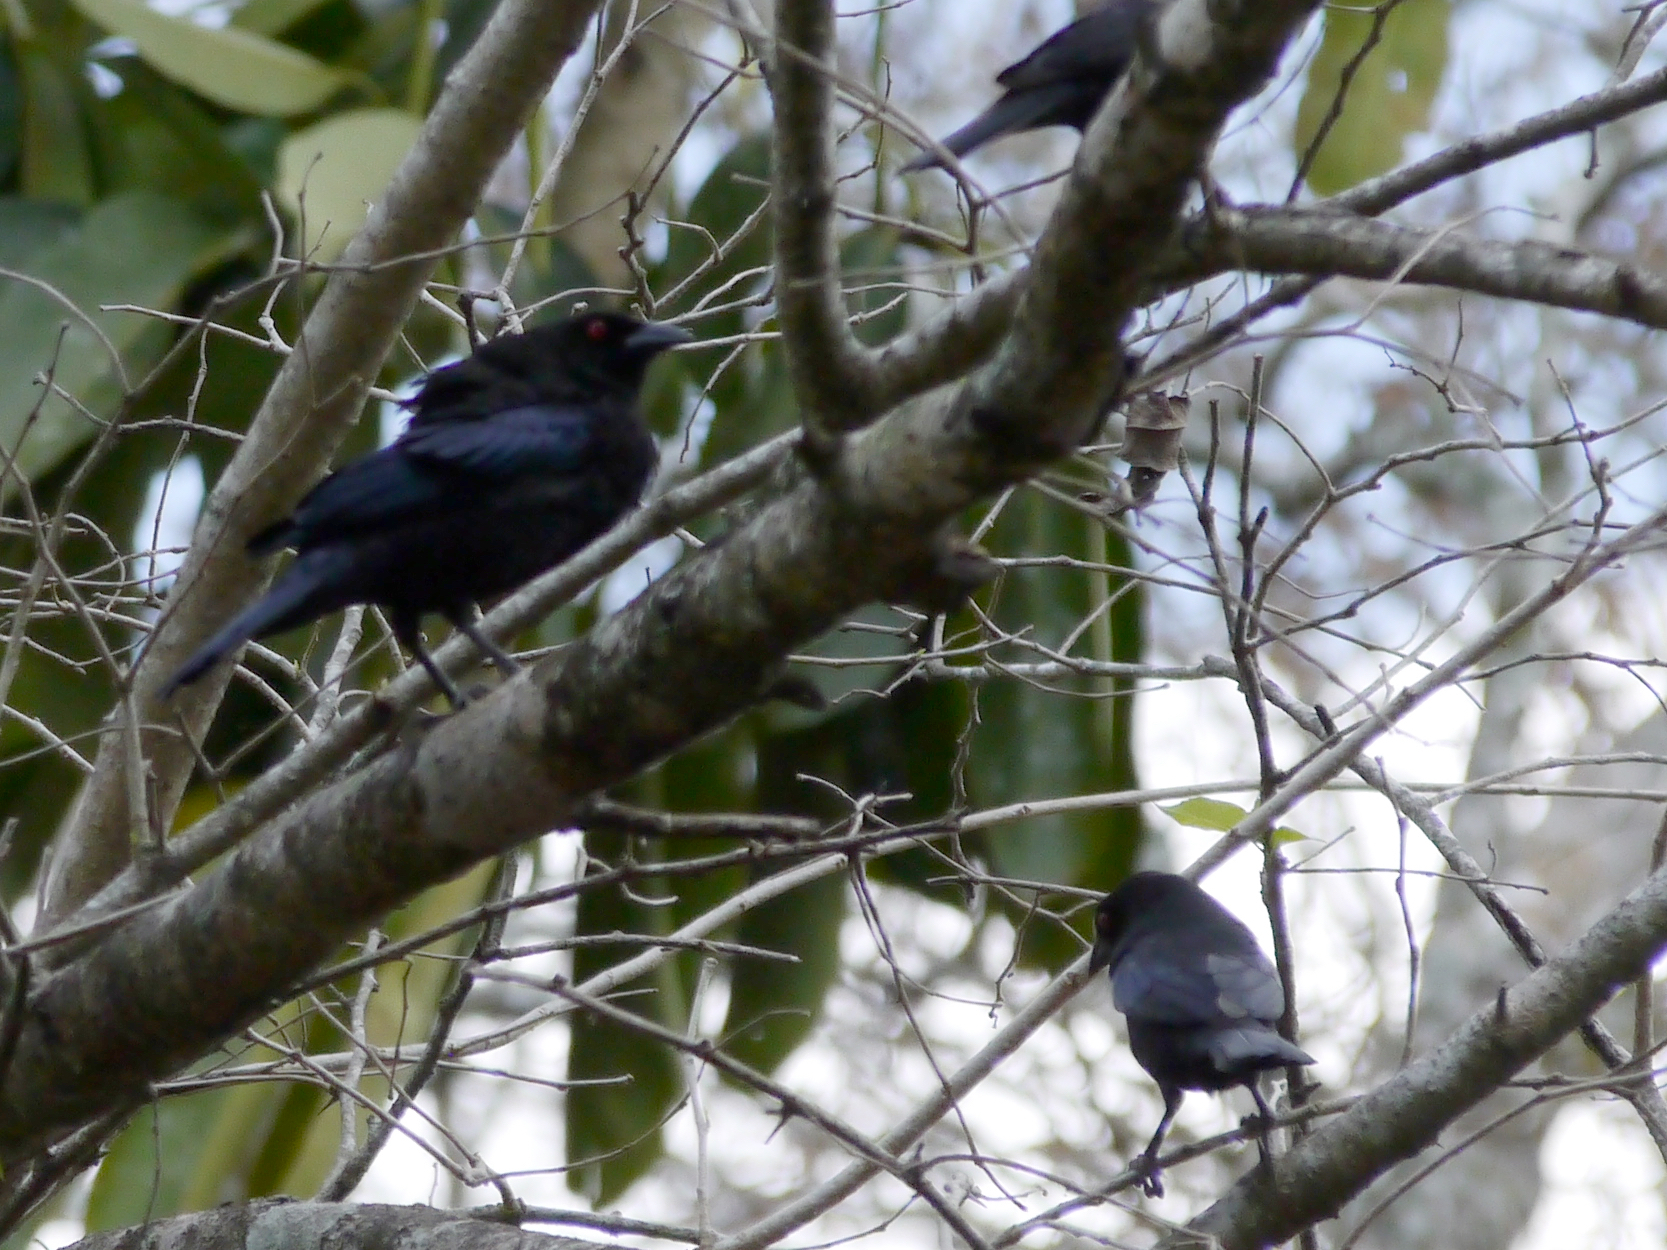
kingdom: Animalia
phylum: Chordata
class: Aves
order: Passeriformes
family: Icteridae
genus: Molothrus
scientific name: Molothrus aeneus
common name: Bronzed cowbird
